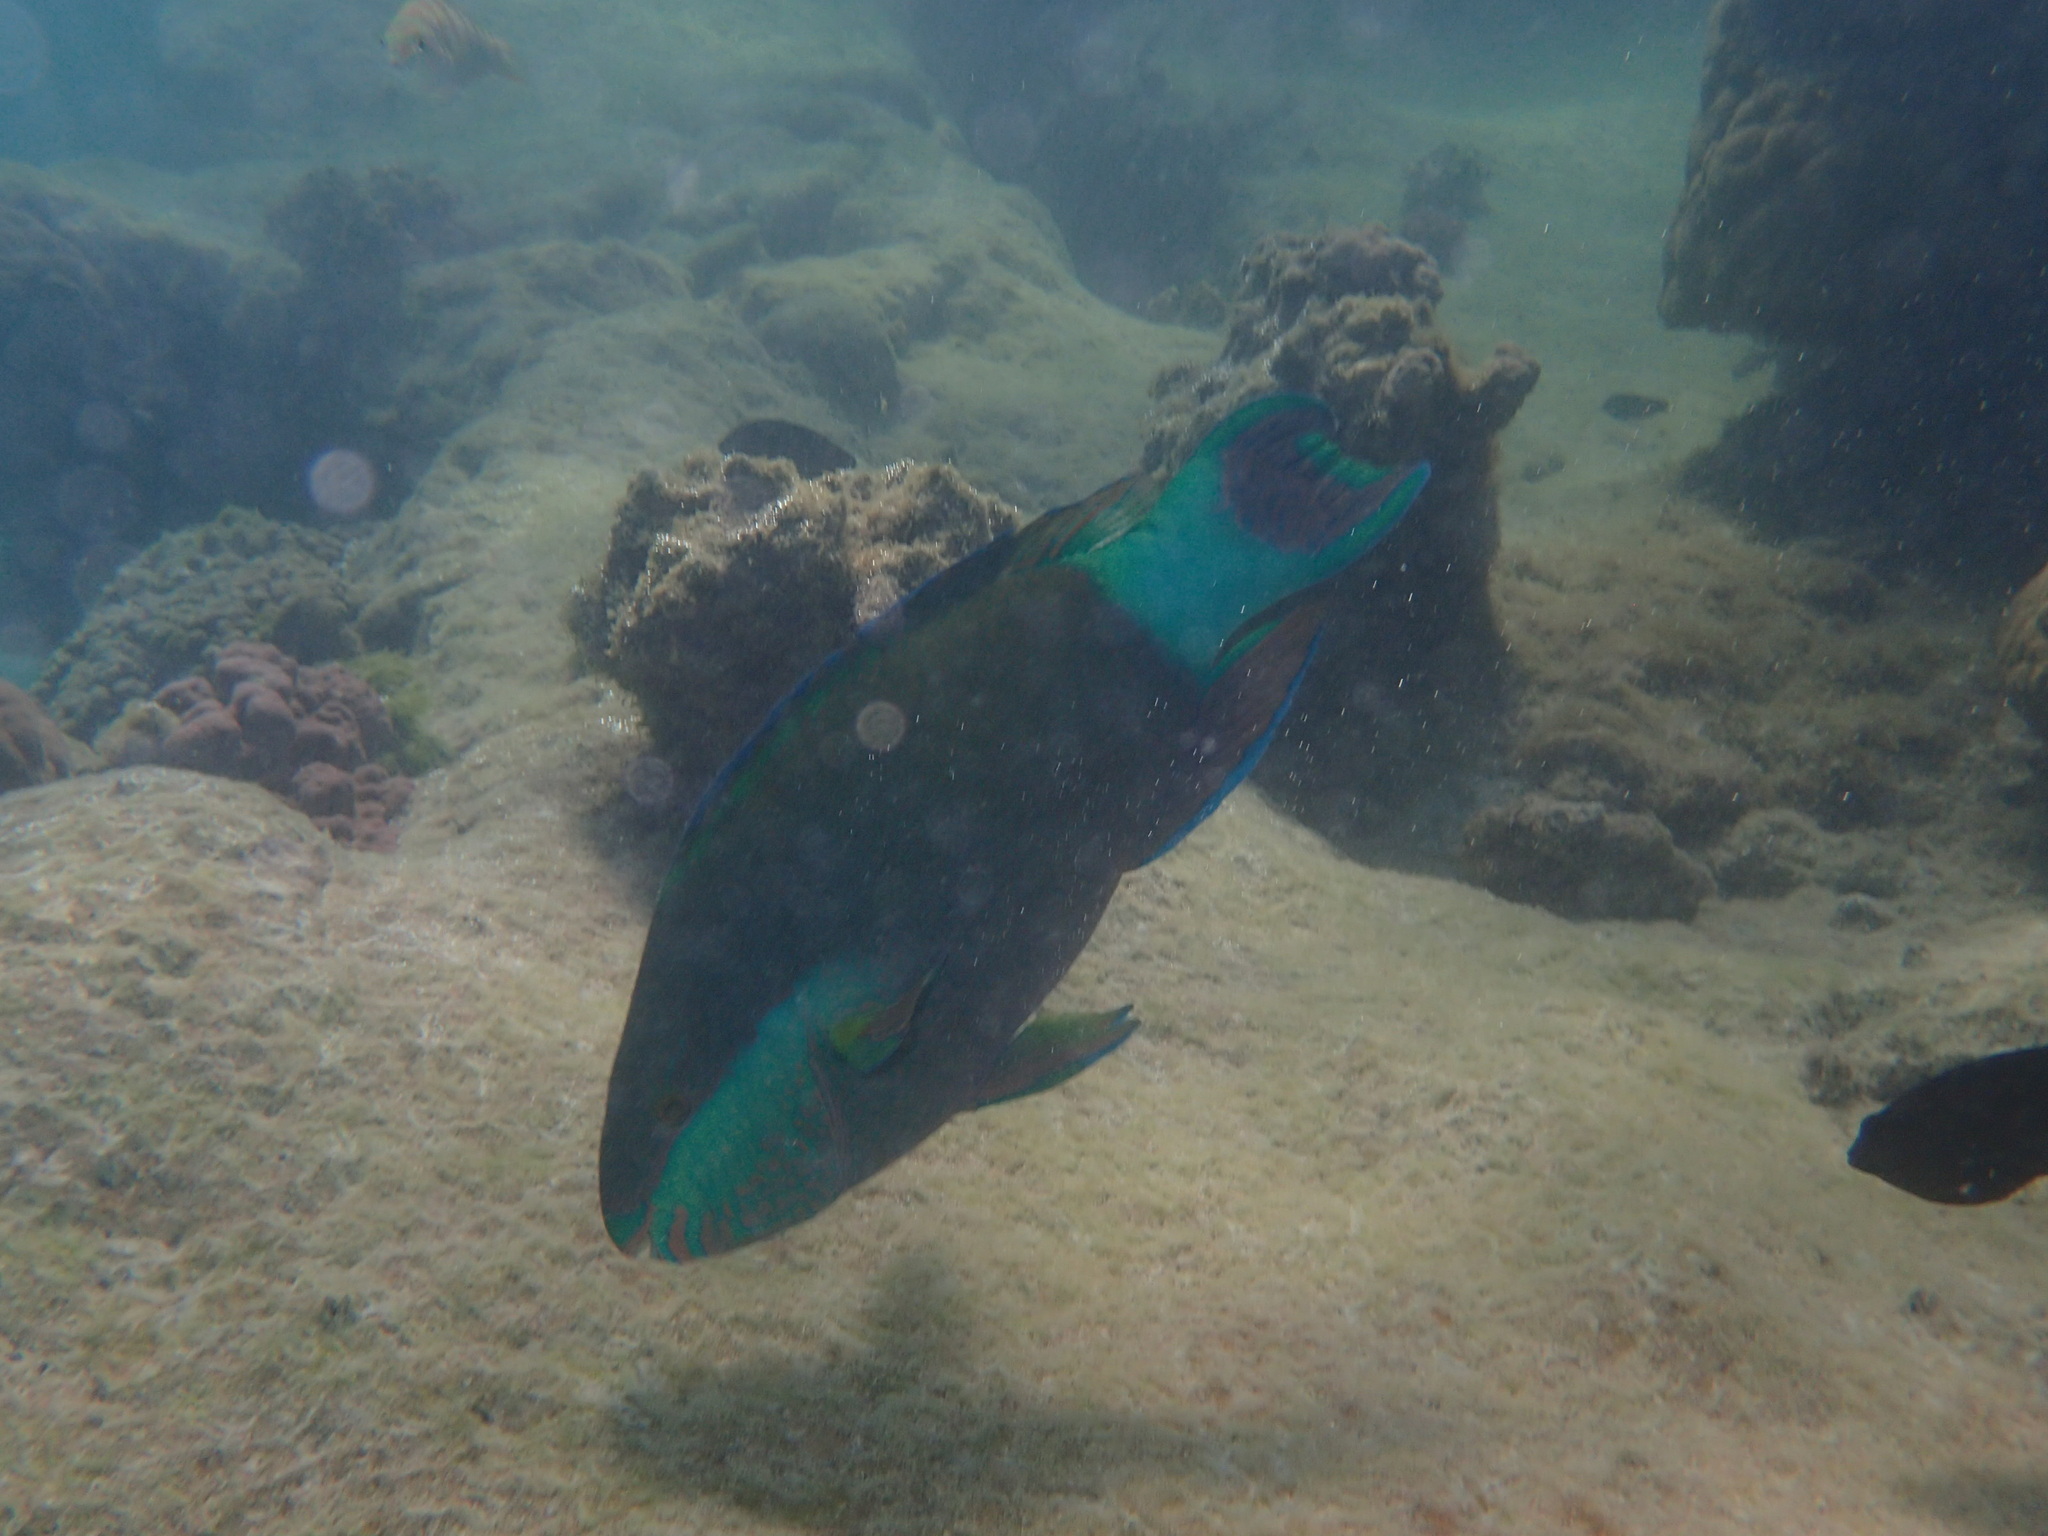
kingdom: Animalia
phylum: Chordata
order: Perciformes
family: Scaridae
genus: Scarus
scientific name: Scarus frenatus
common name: Bridled parrotfish
